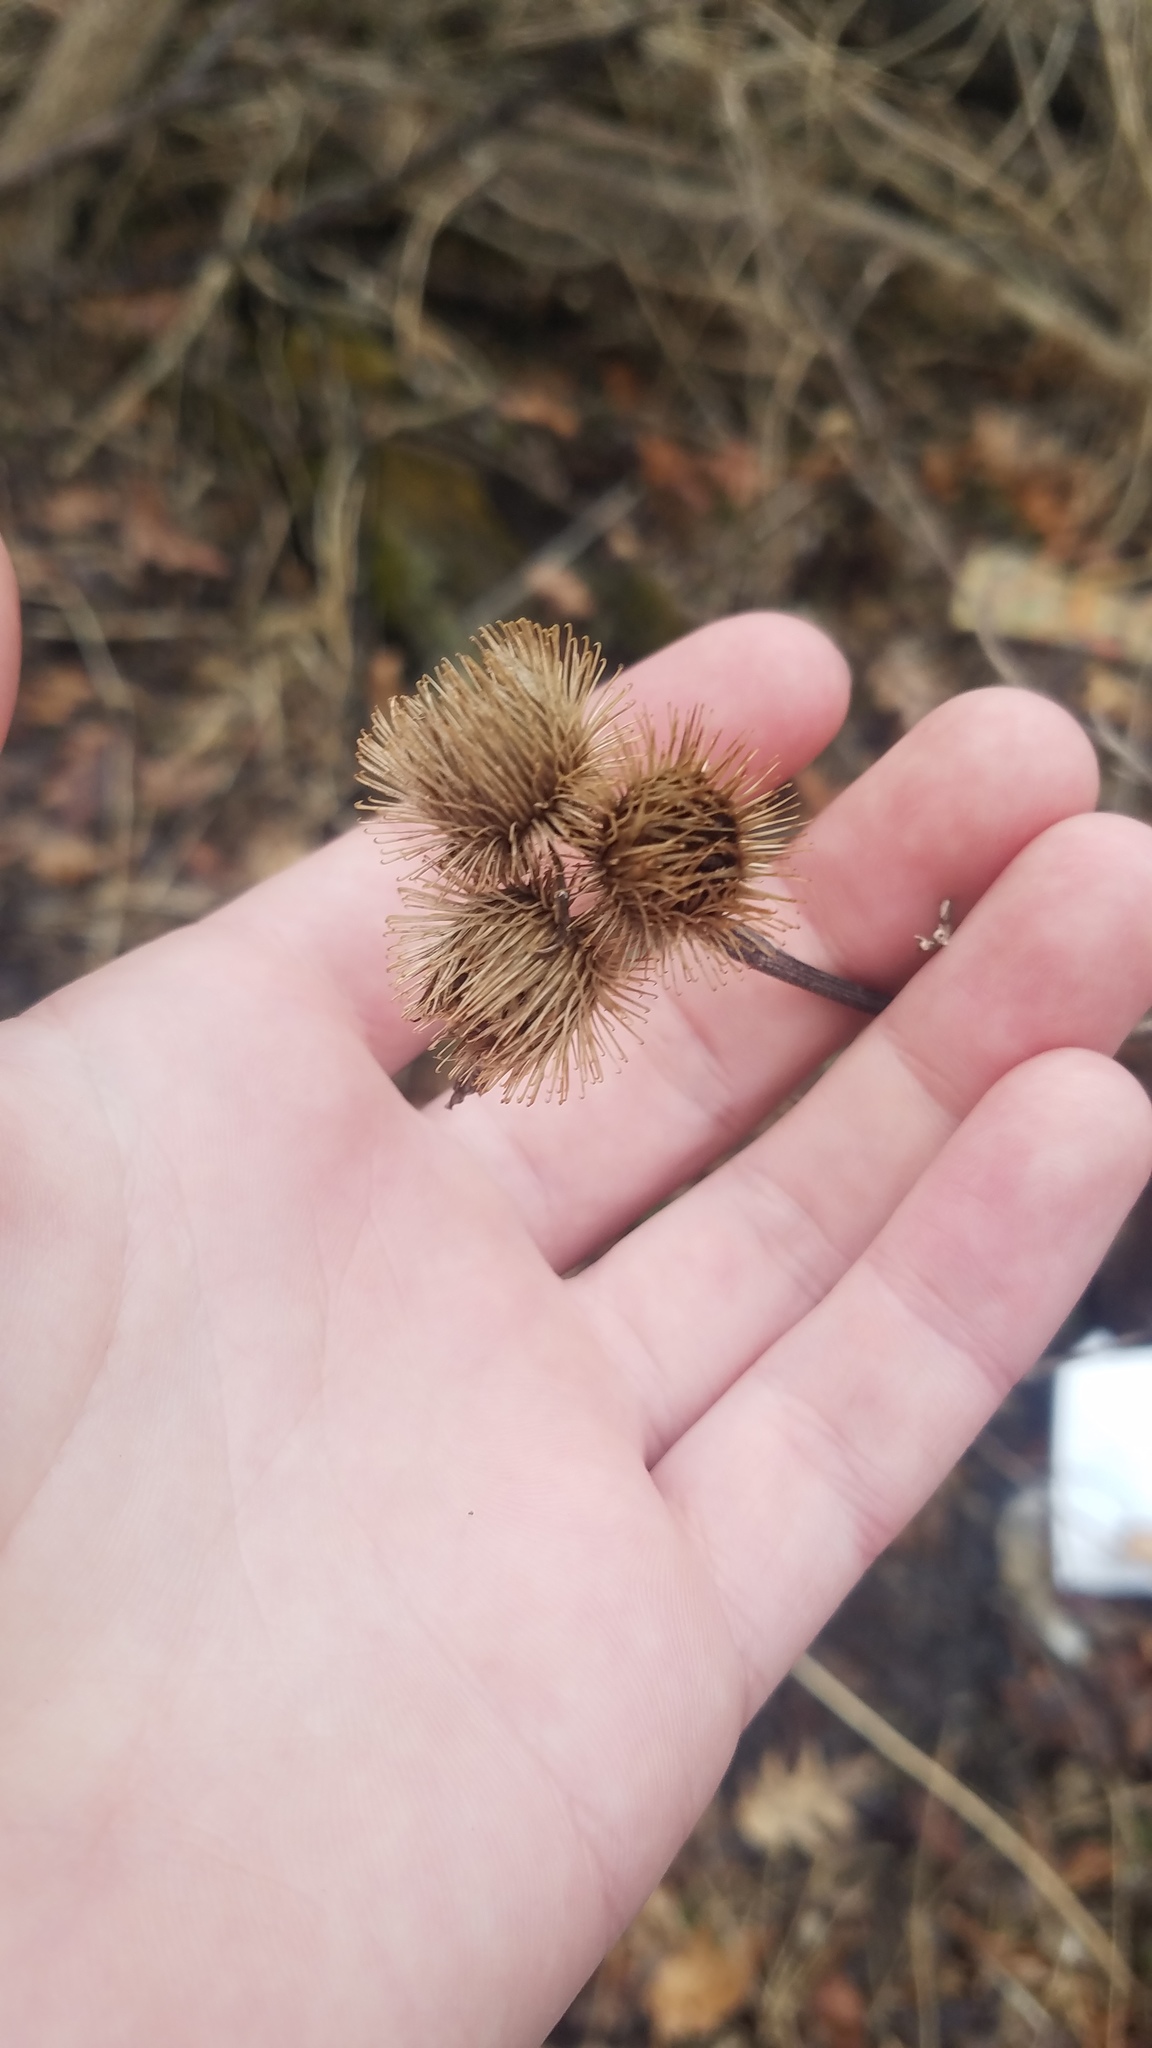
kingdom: Plantae
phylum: Tracheophyta
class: Magnoliopsida
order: Asterales
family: Asteraceae
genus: Arctium
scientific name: Arctium minus
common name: Lesser burdock
